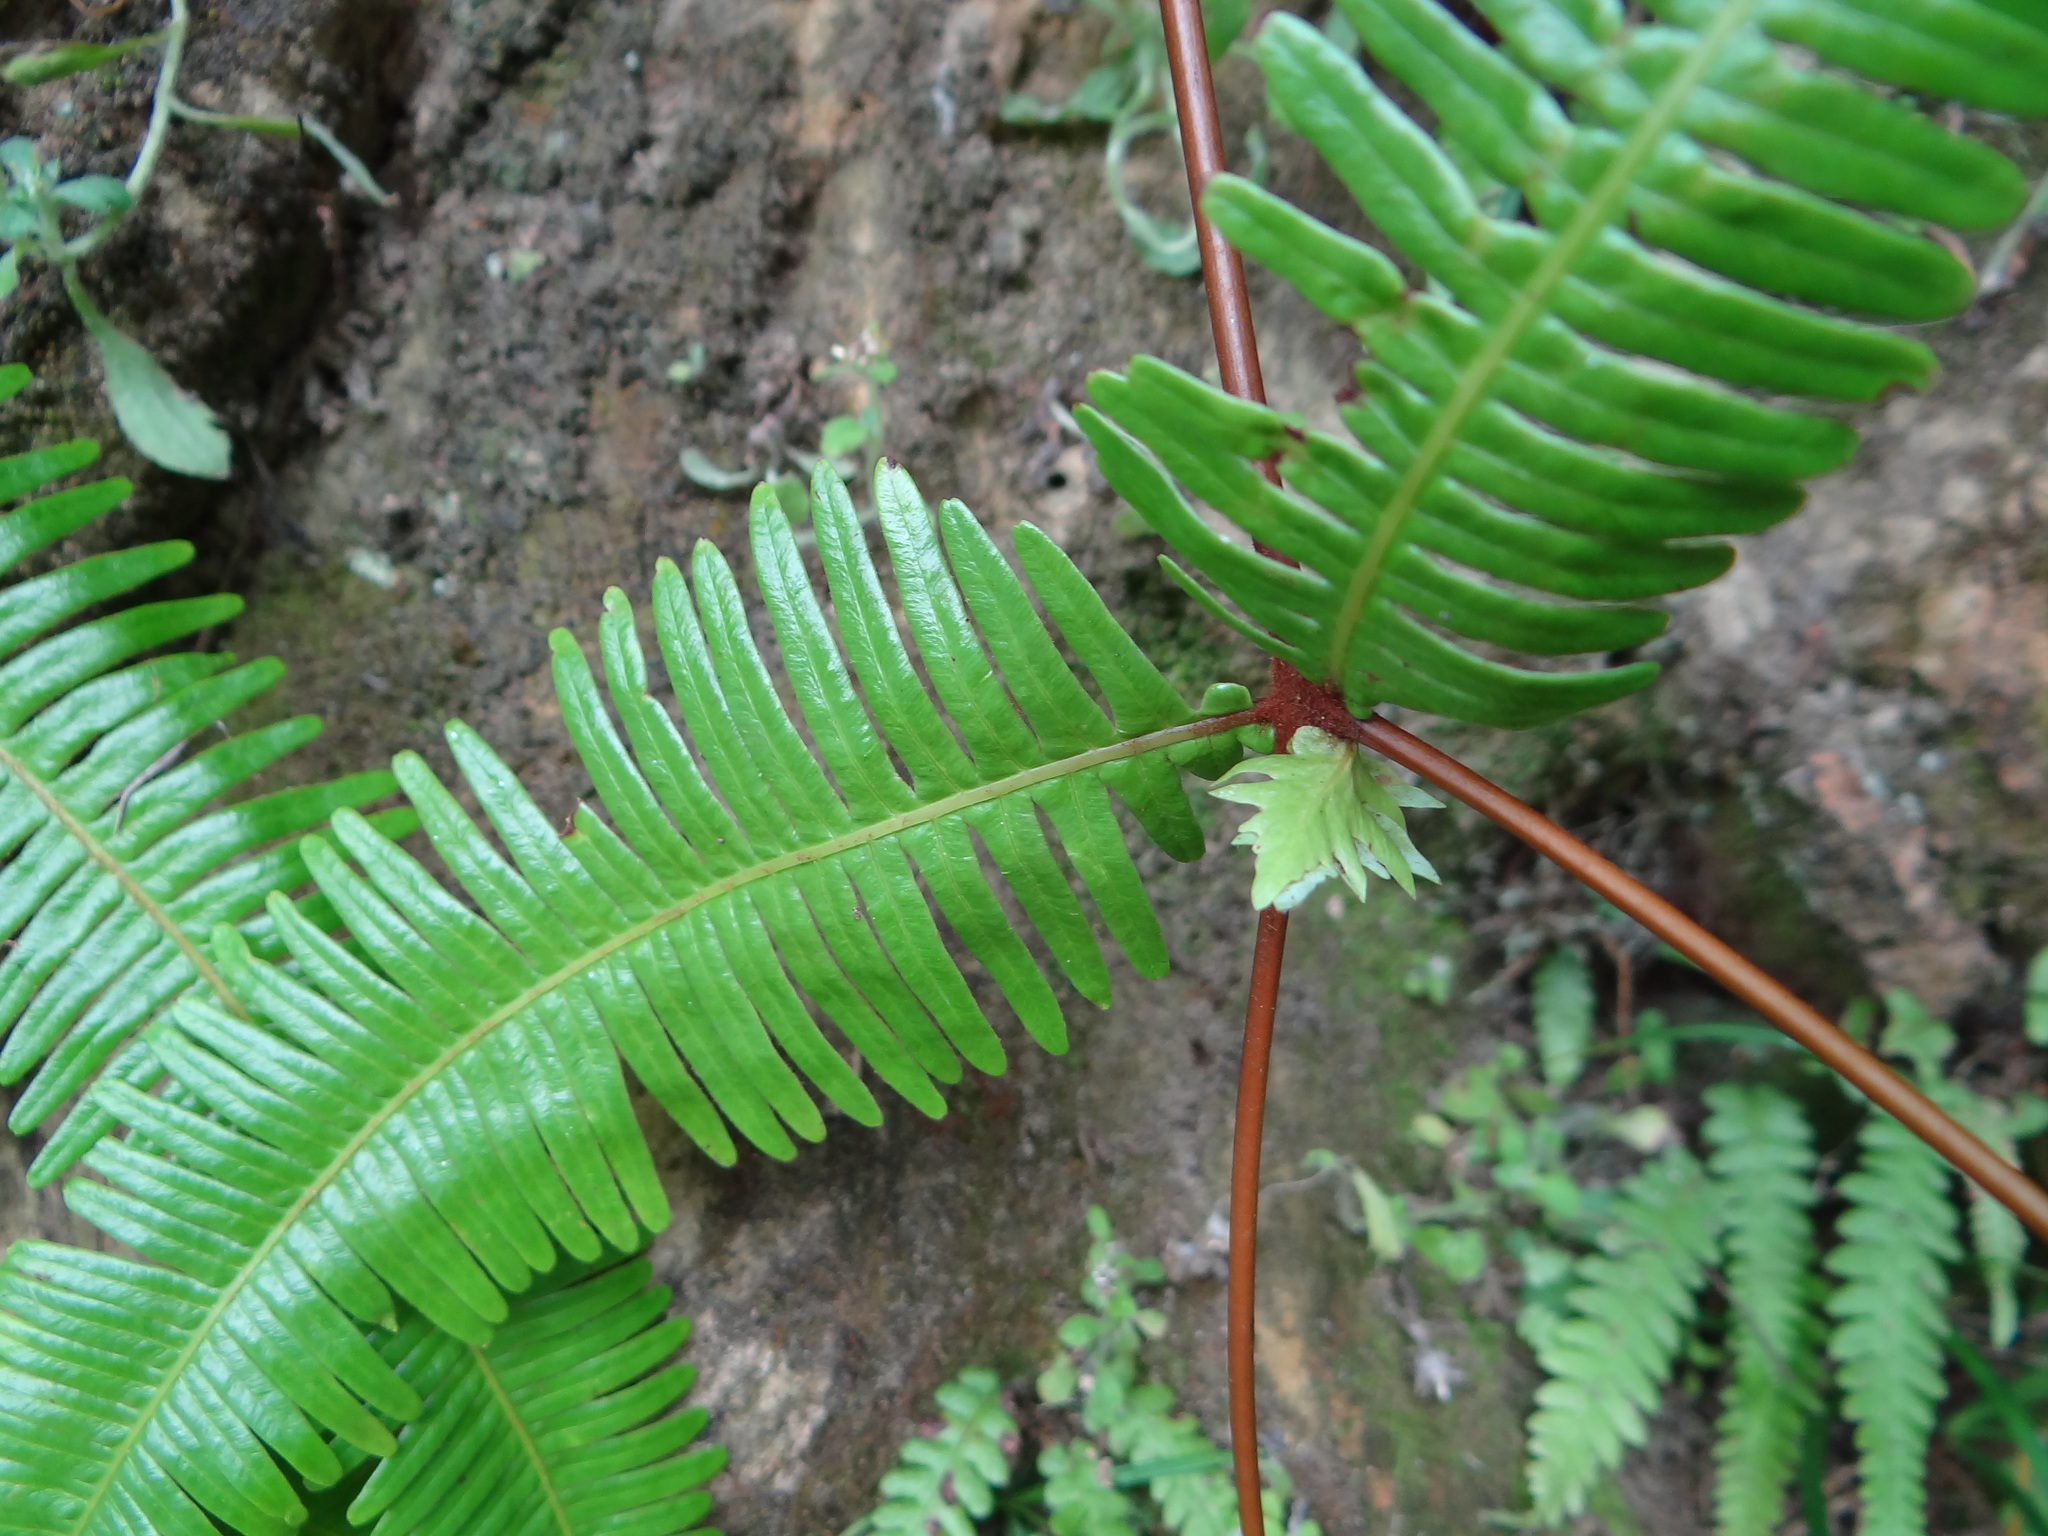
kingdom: Plantae
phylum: Tracheophyta
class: Polypodiopsida
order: Gleicheniales
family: Gleicheniaceae
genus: Dicranopteris
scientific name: Dicranopteris linearis
